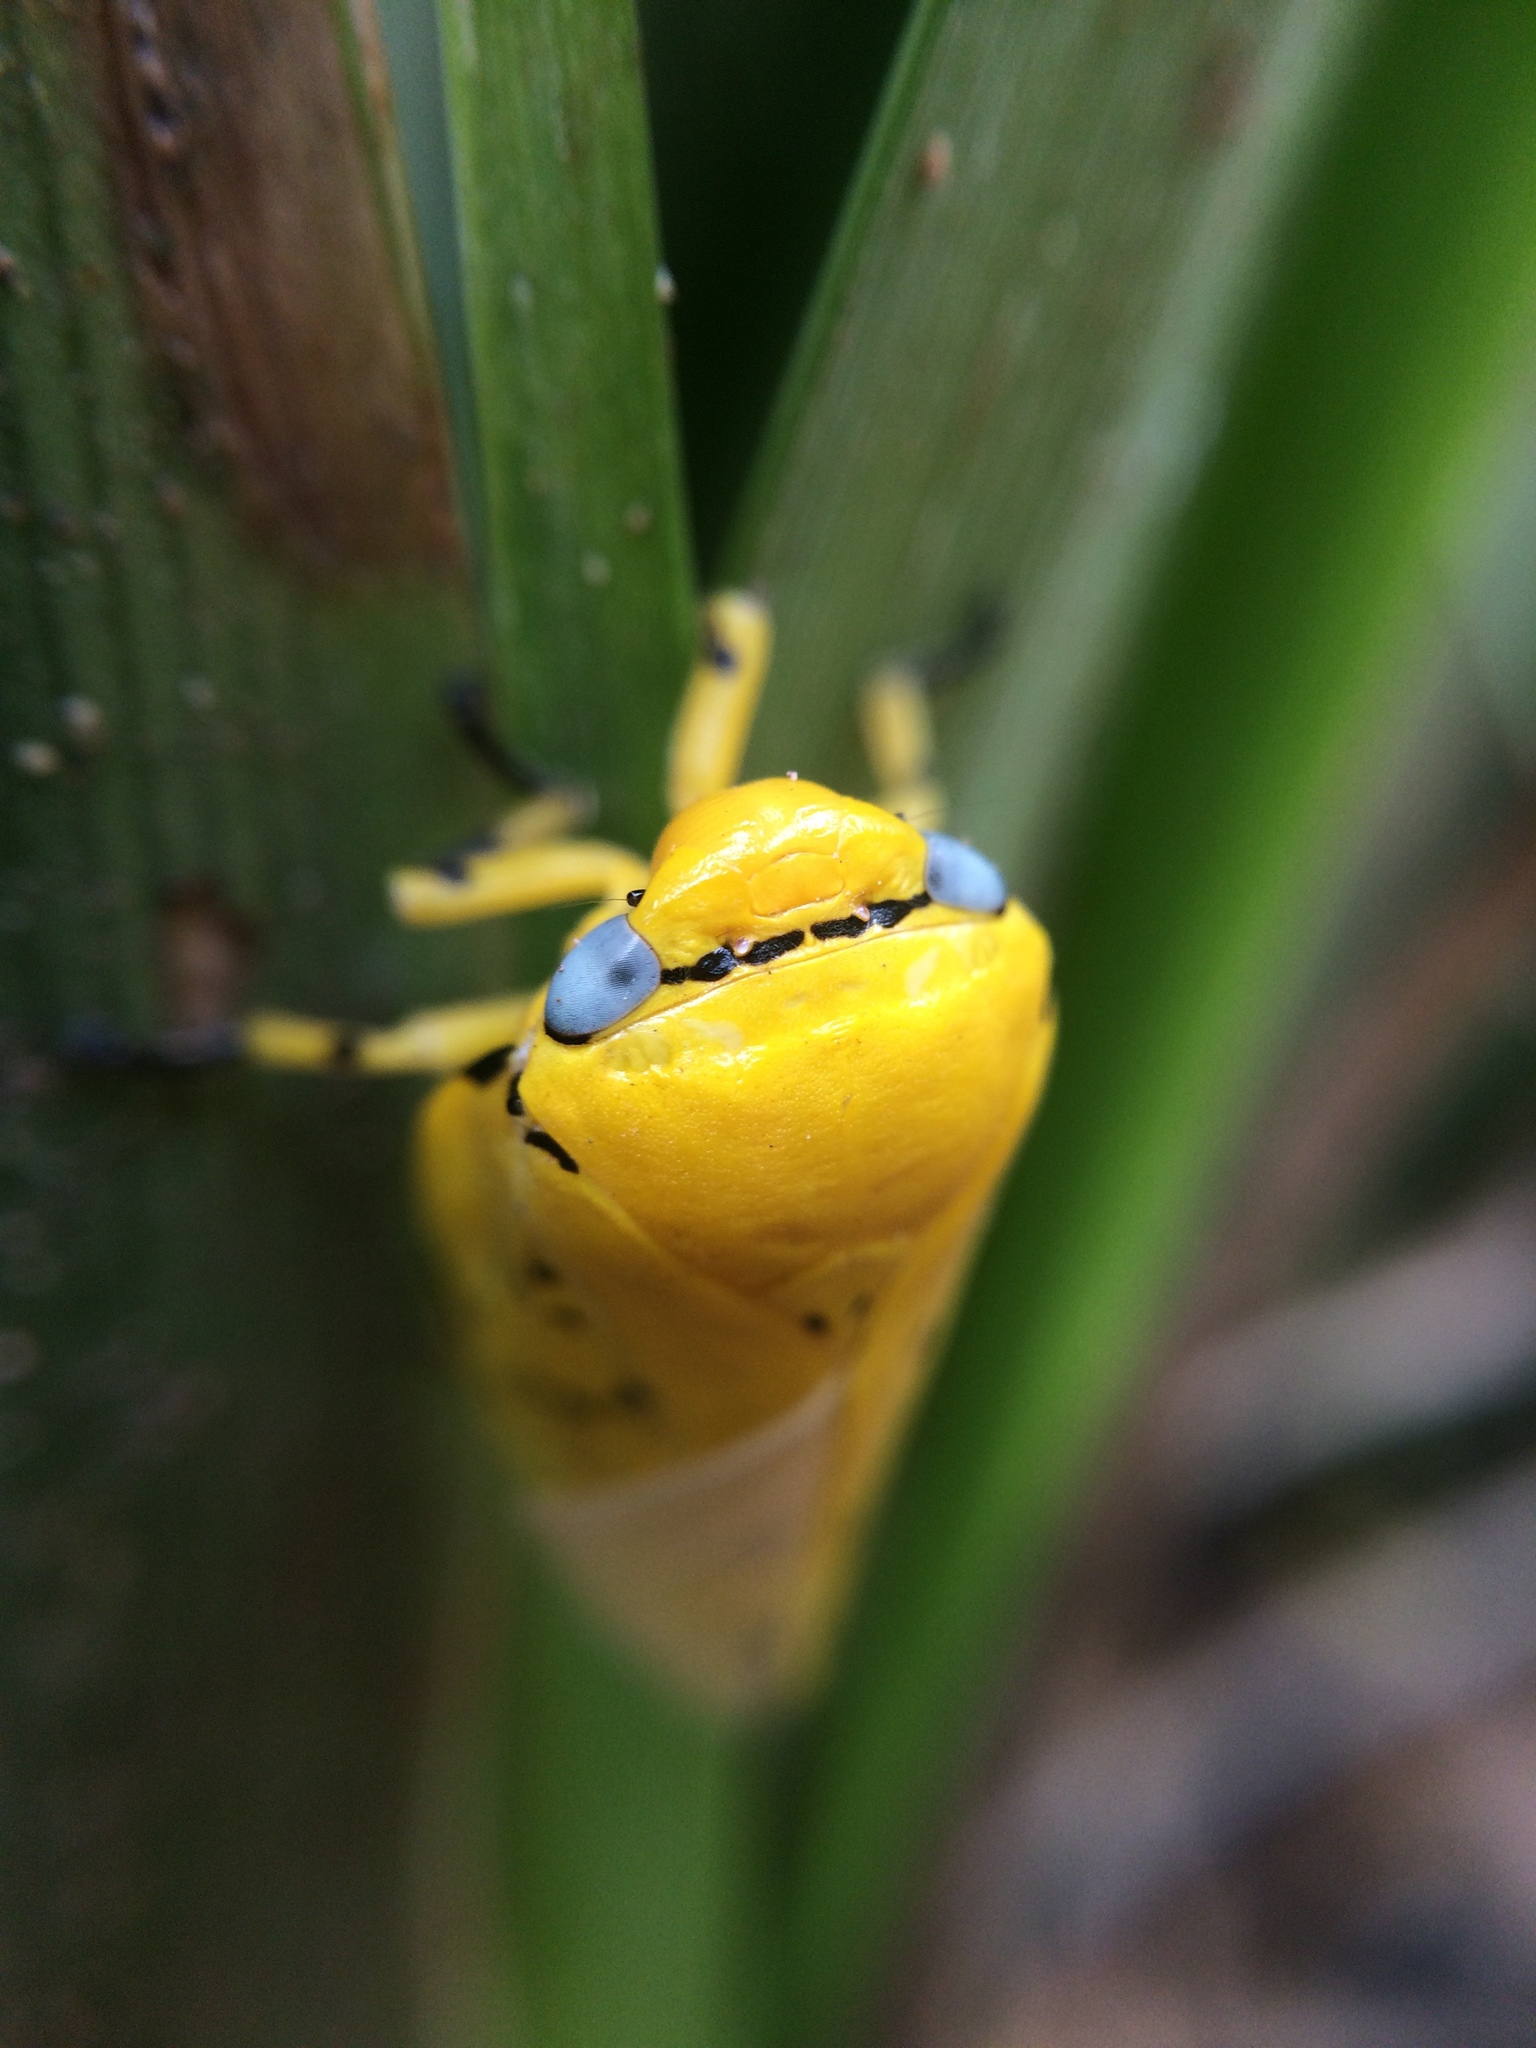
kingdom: Animalia
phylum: Arthropoda
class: Insecta
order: Hemiptera
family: Aphrophoridae
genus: Ptyelus
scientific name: Ptyelus flavescens
